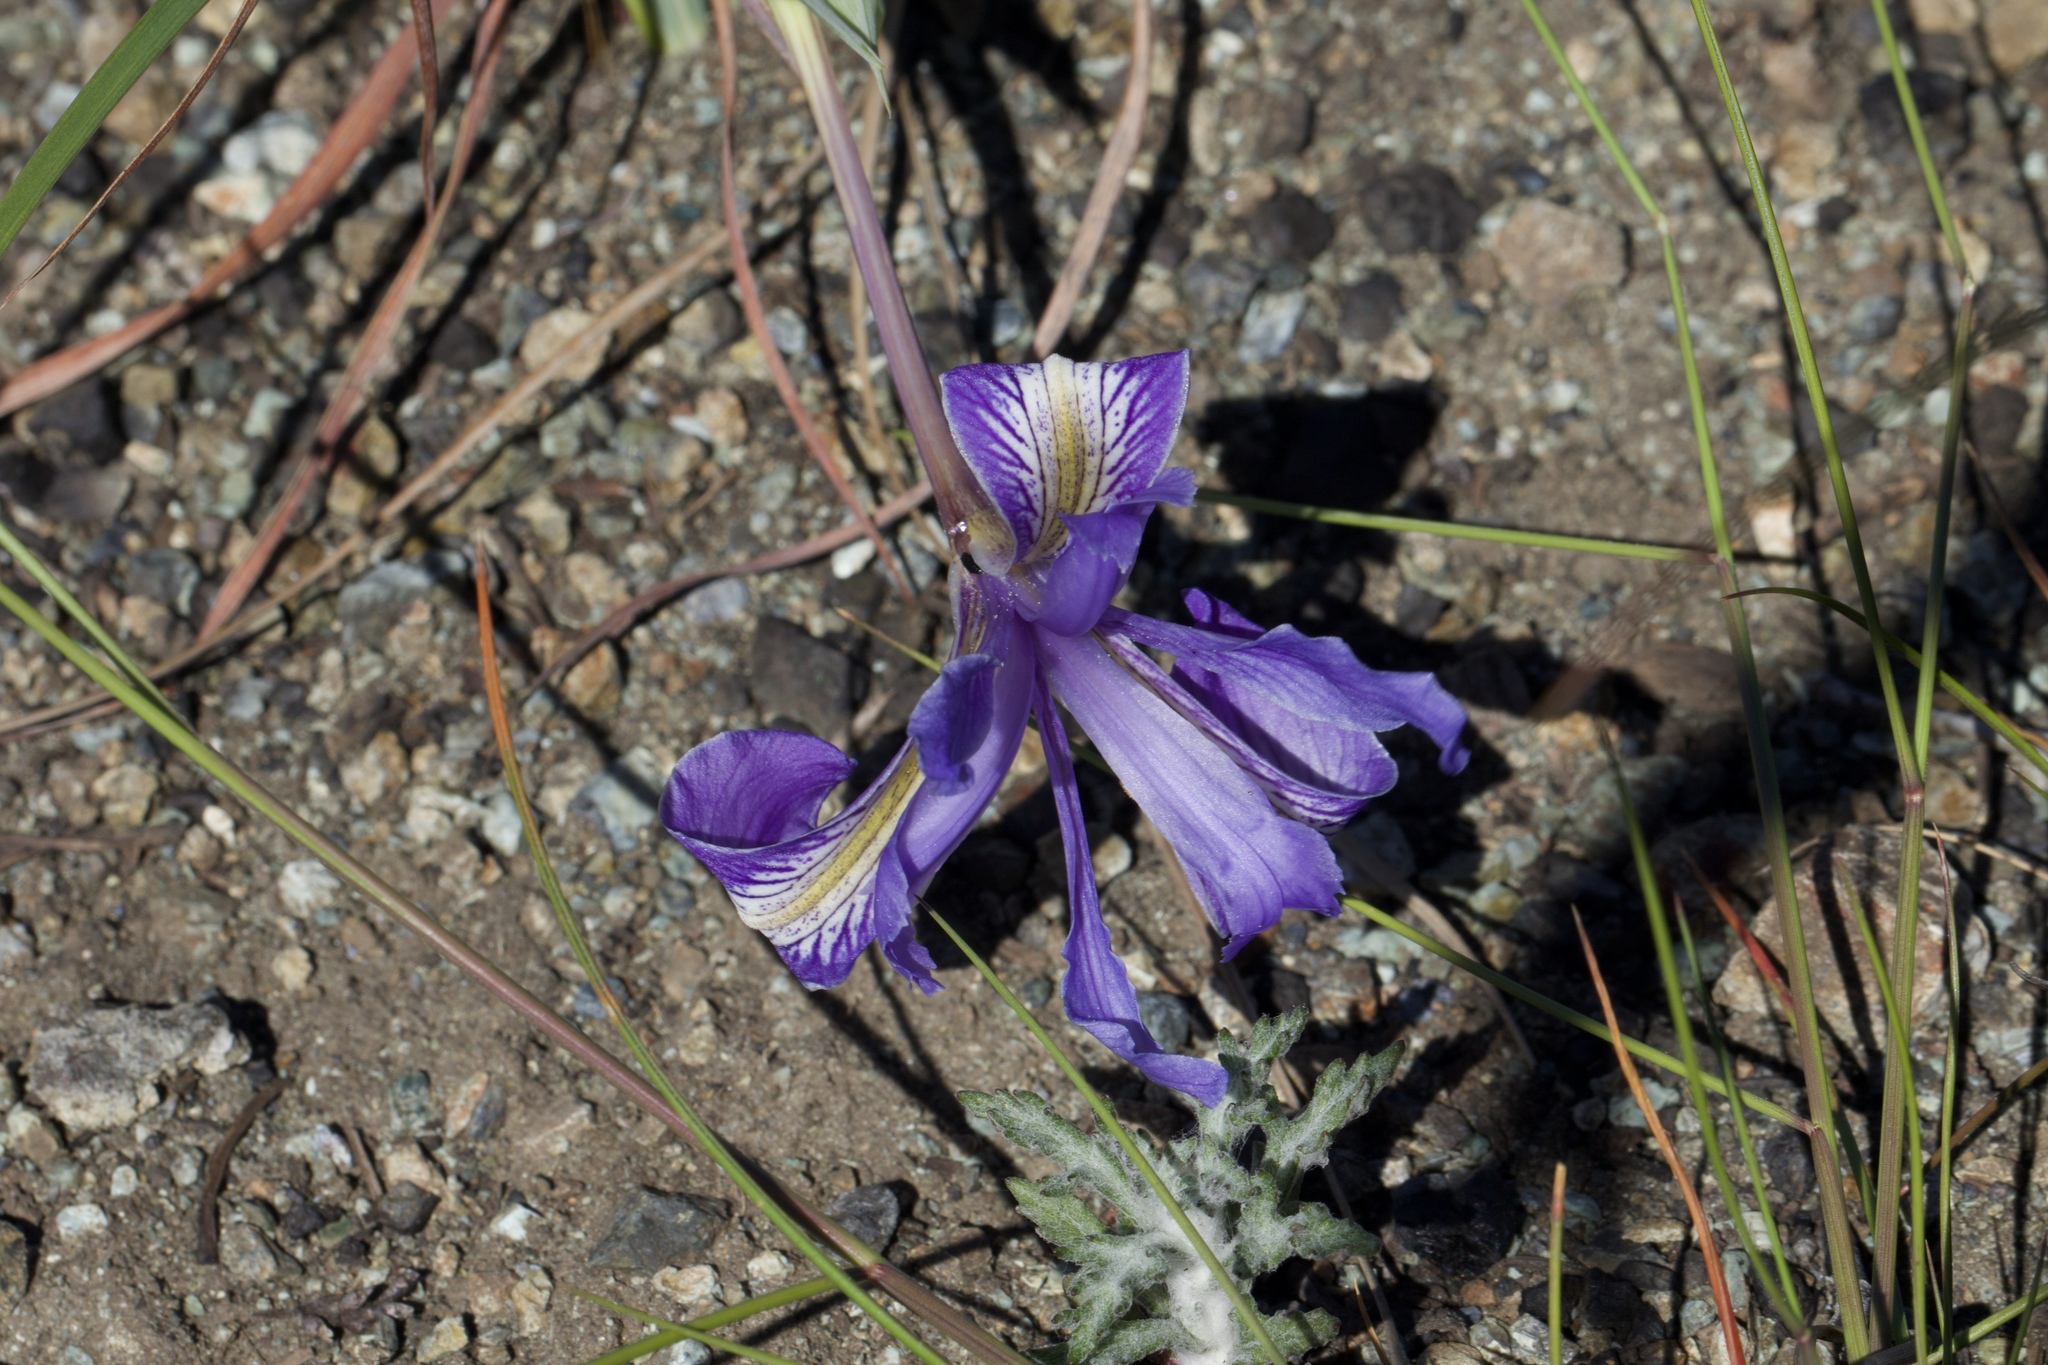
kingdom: Plantae
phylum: Tracheophyta
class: Liliopsida
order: Asparagales
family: Iridaceae
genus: Iris
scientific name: Iris macrosiphon
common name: Ground iris
